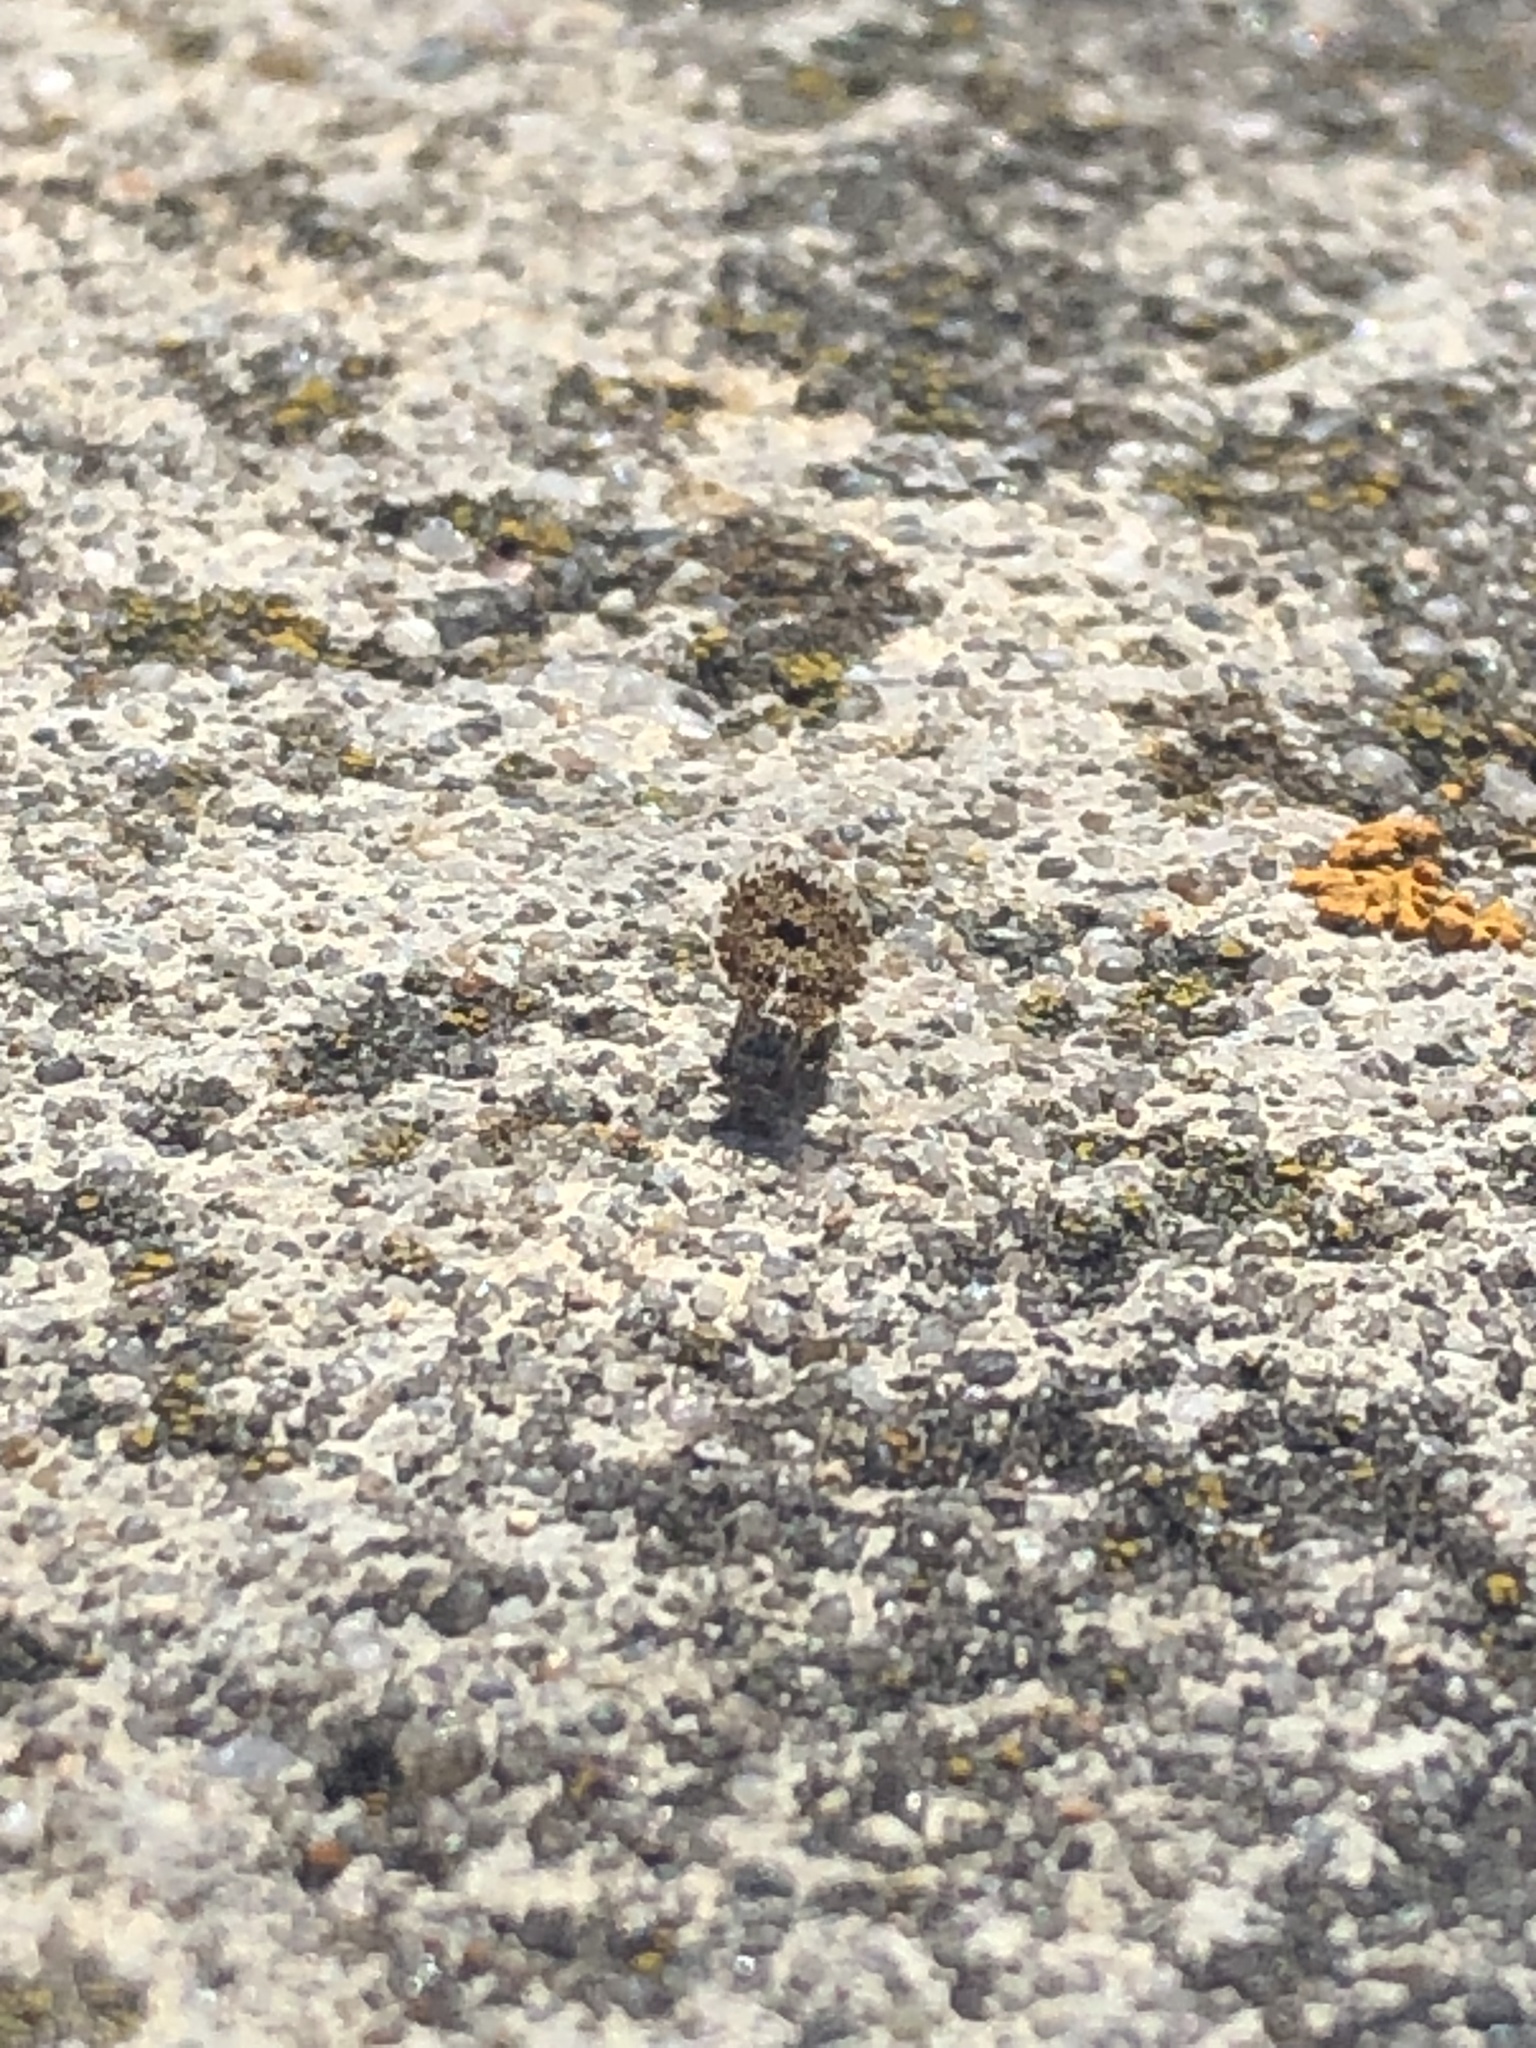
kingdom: Animalia
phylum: Arthropoda
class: Insecta
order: Diptera
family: Ulidiidae
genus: Callopistromyia
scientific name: Callopistromyia annulipes
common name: Peacock fly
